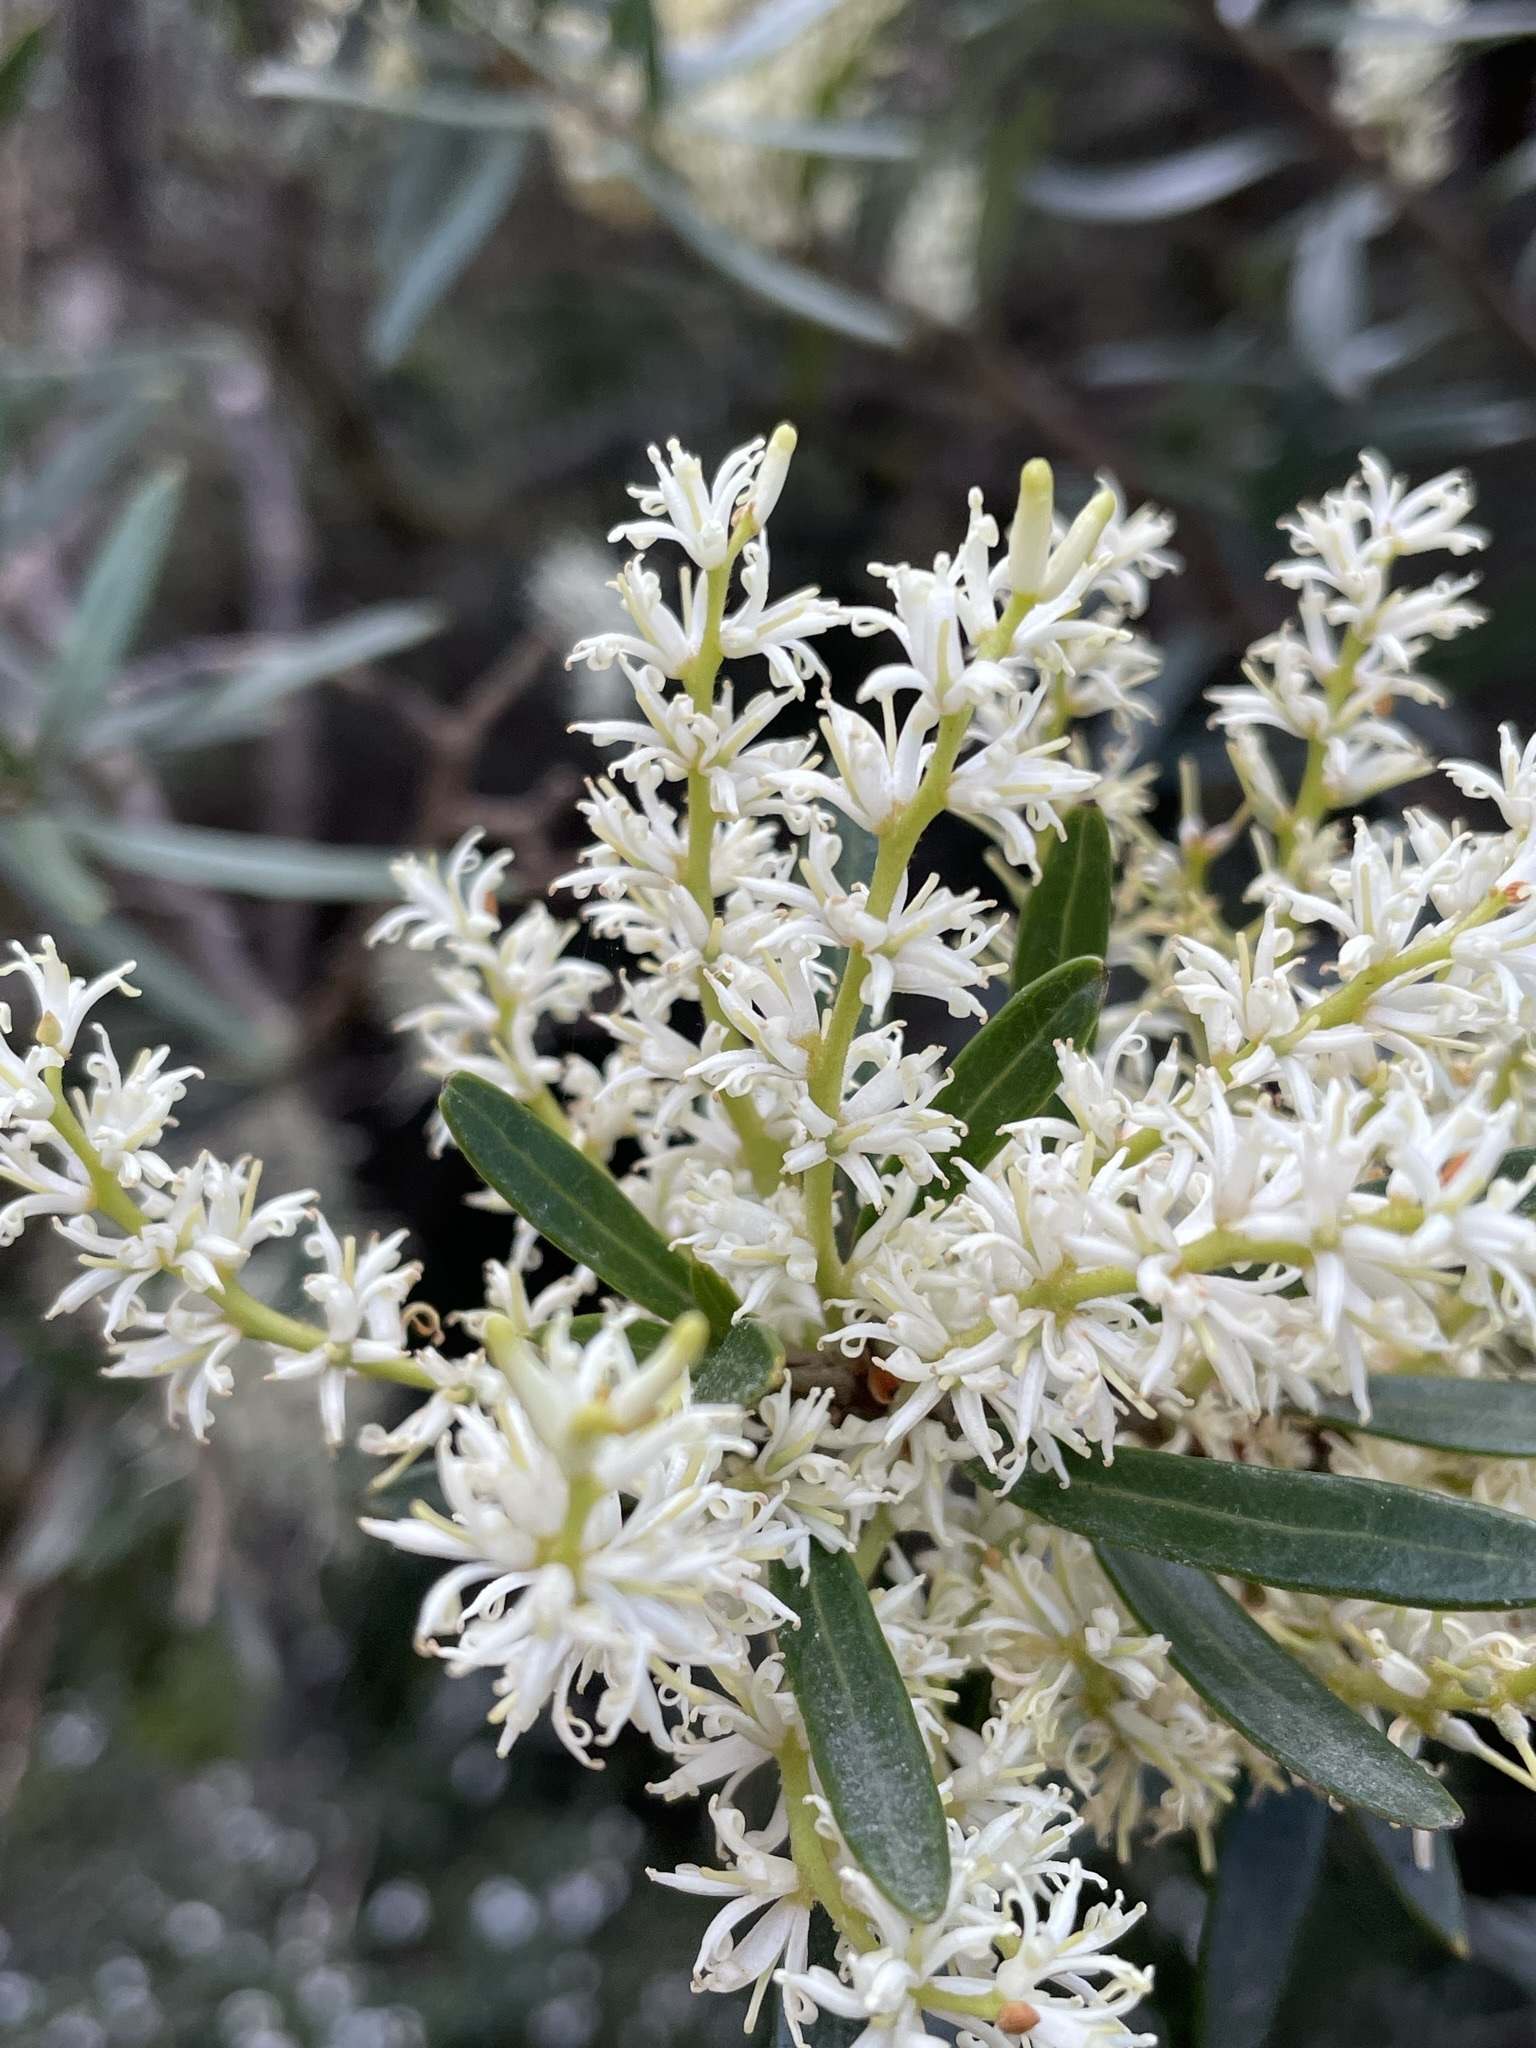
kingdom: Plantae
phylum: Tracheophyta
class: Magnoliopsida
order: Proteales
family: Proteaceae
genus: Orites
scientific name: Orites diversifolius
